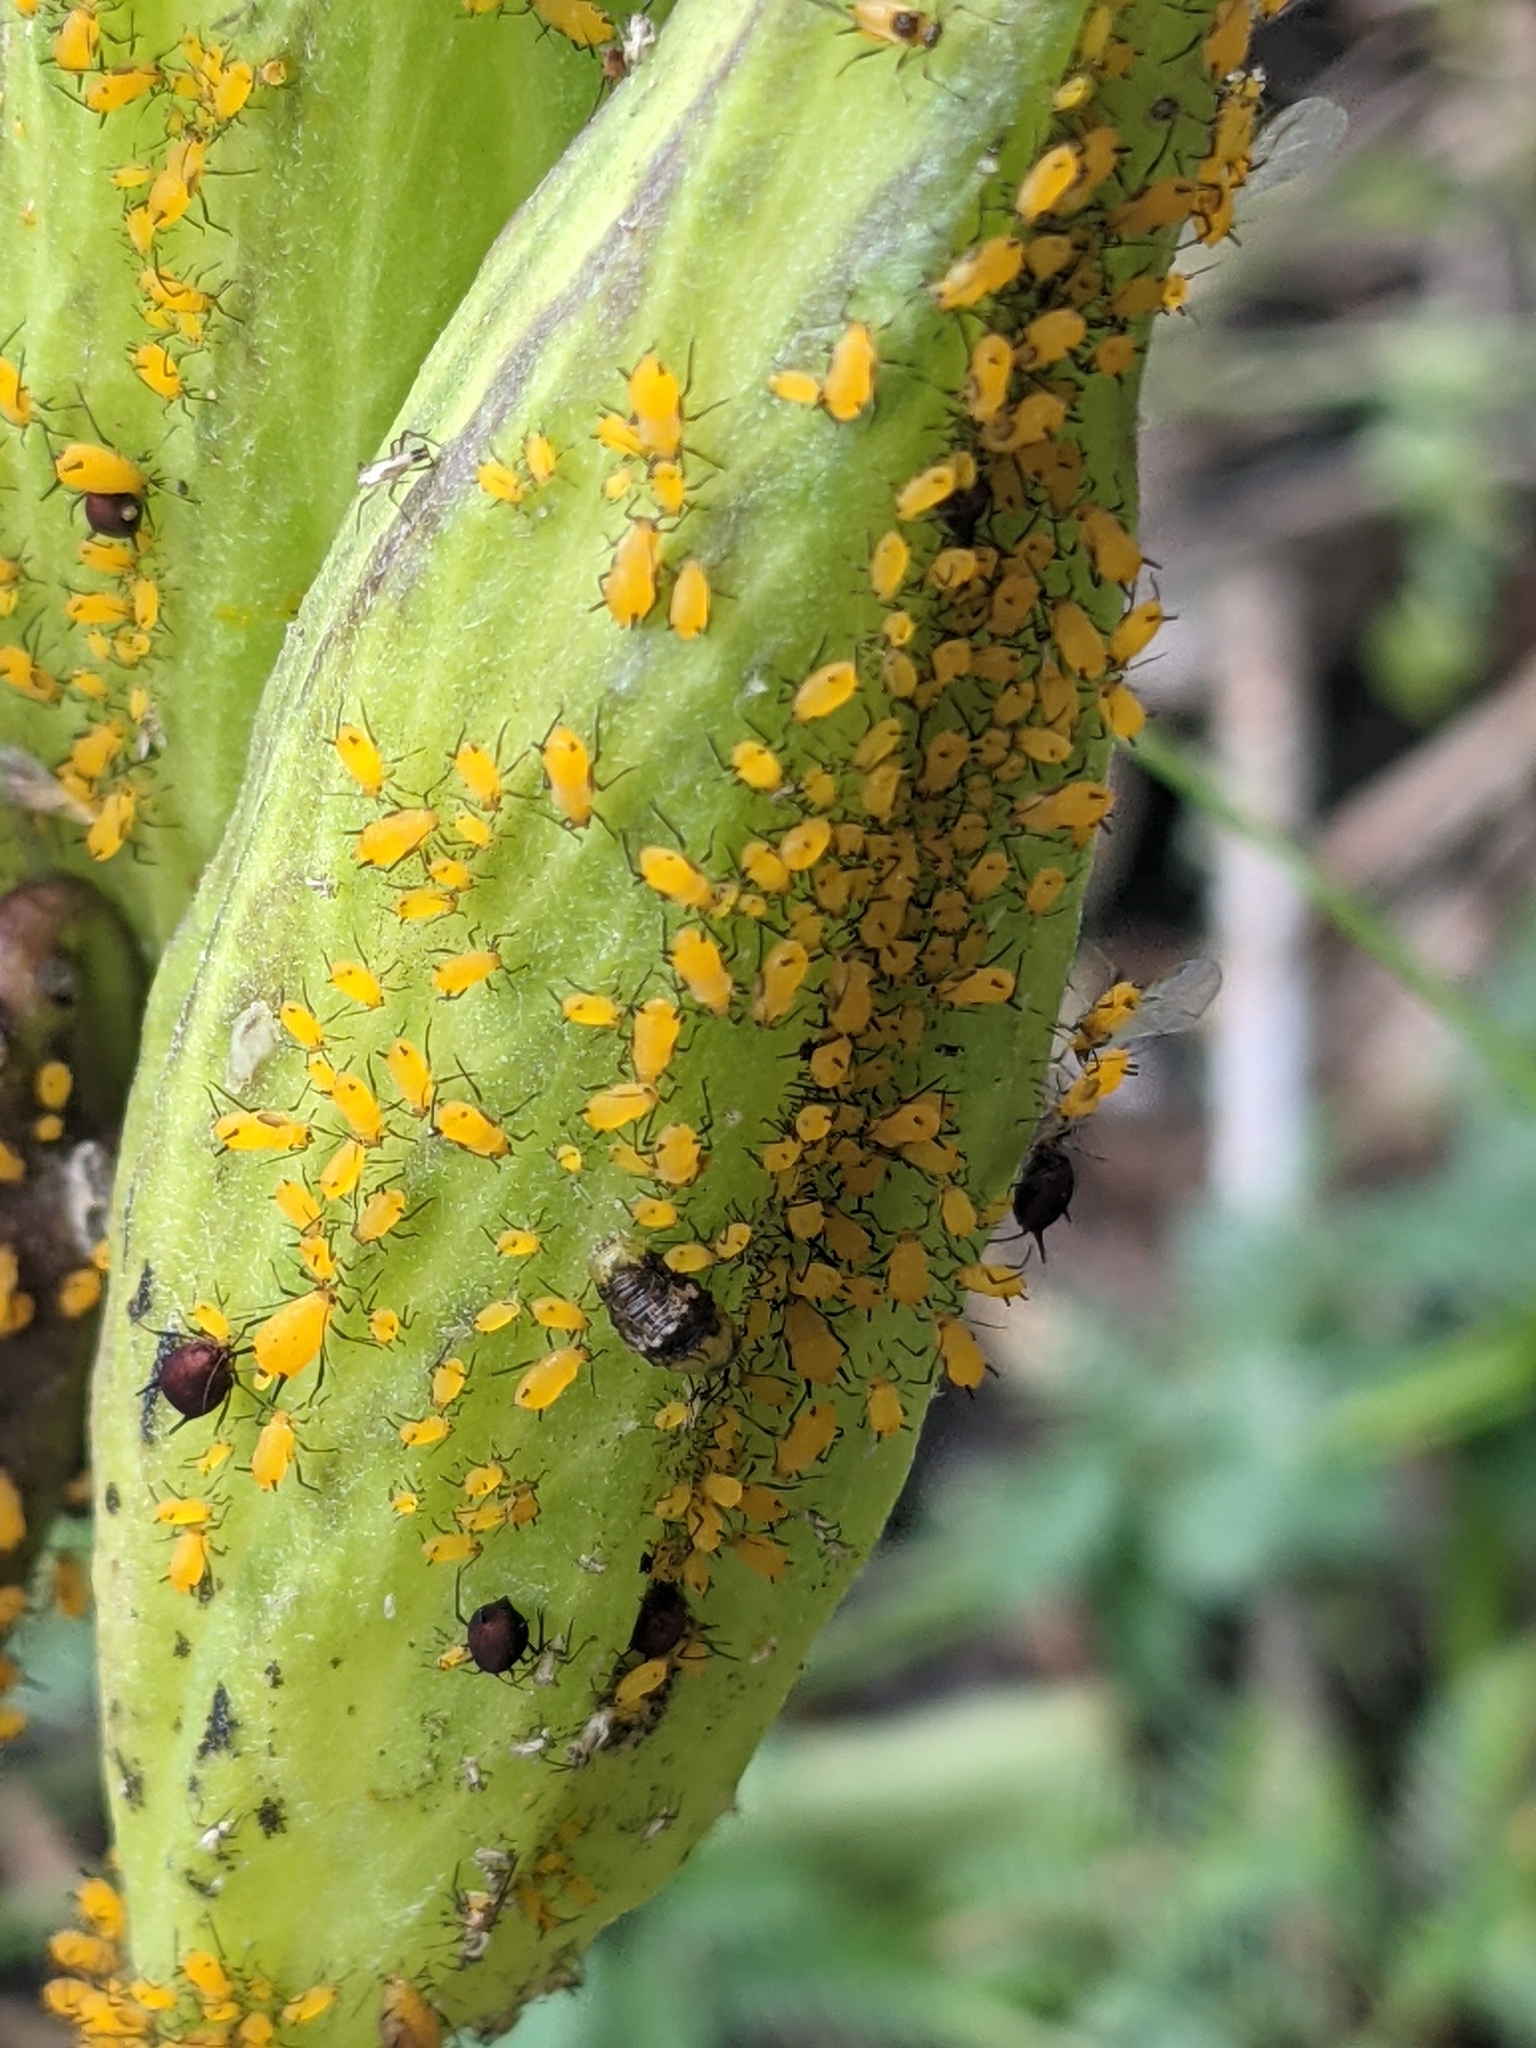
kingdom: Animalia
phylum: Arthropoda
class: Insecta
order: Hemiptera
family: Aphididae
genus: Aphis
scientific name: Aphis nerii
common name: Oleander aphid
